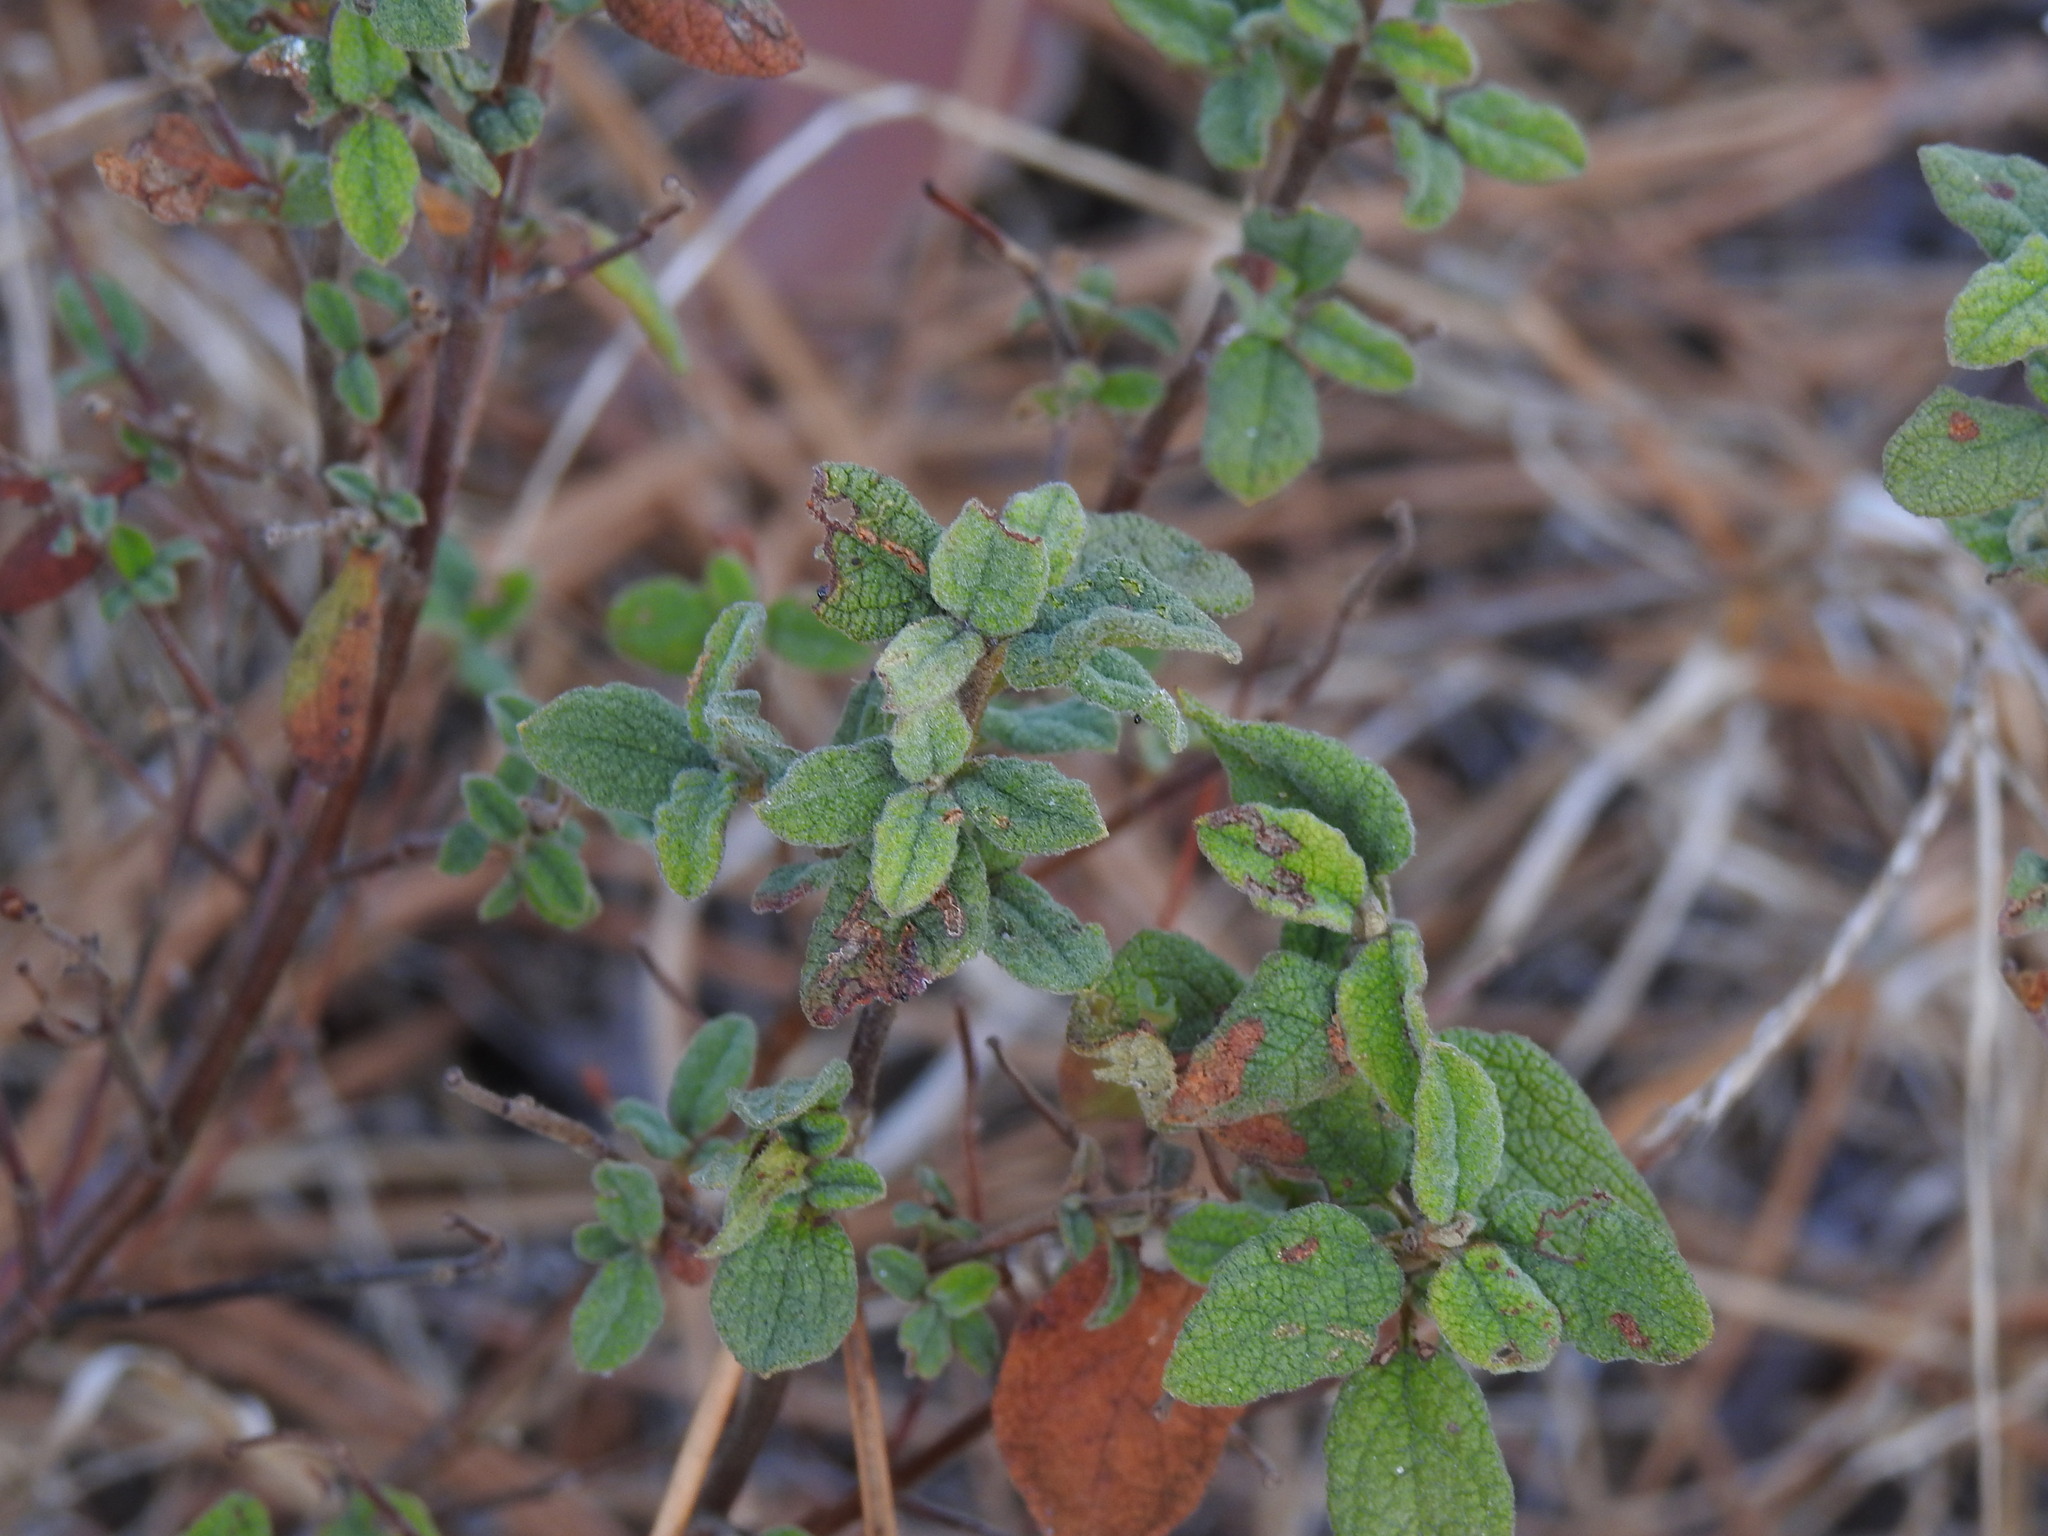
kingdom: Plantae
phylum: Tracheophyta
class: Magnoliopsida
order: Malvales
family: Cistaceae
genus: Cistus
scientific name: Cistus salviifolius
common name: Salvia cistus
